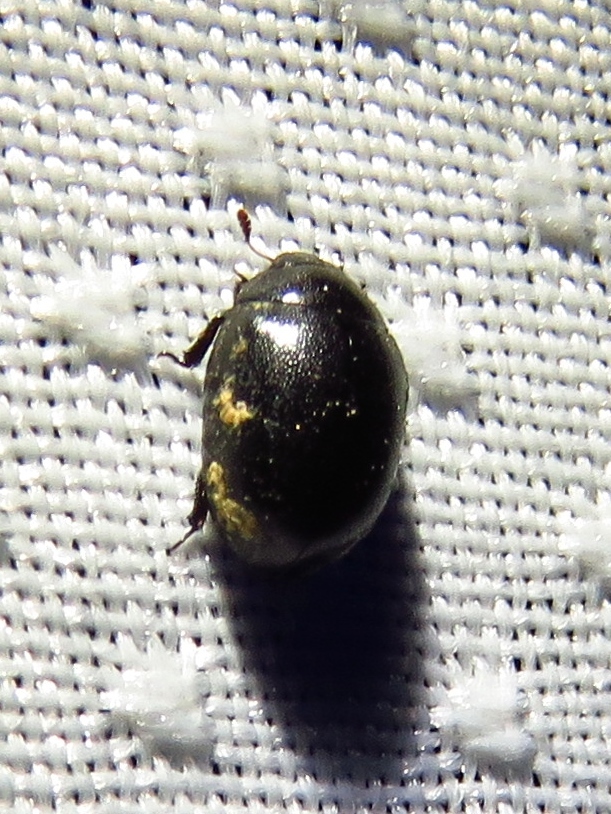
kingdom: Animalia
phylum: Arthropoda
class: Insecta
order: Coleoptera
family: Nosodendridae
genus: Nosodendron
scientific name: Nosodendron unicolor
